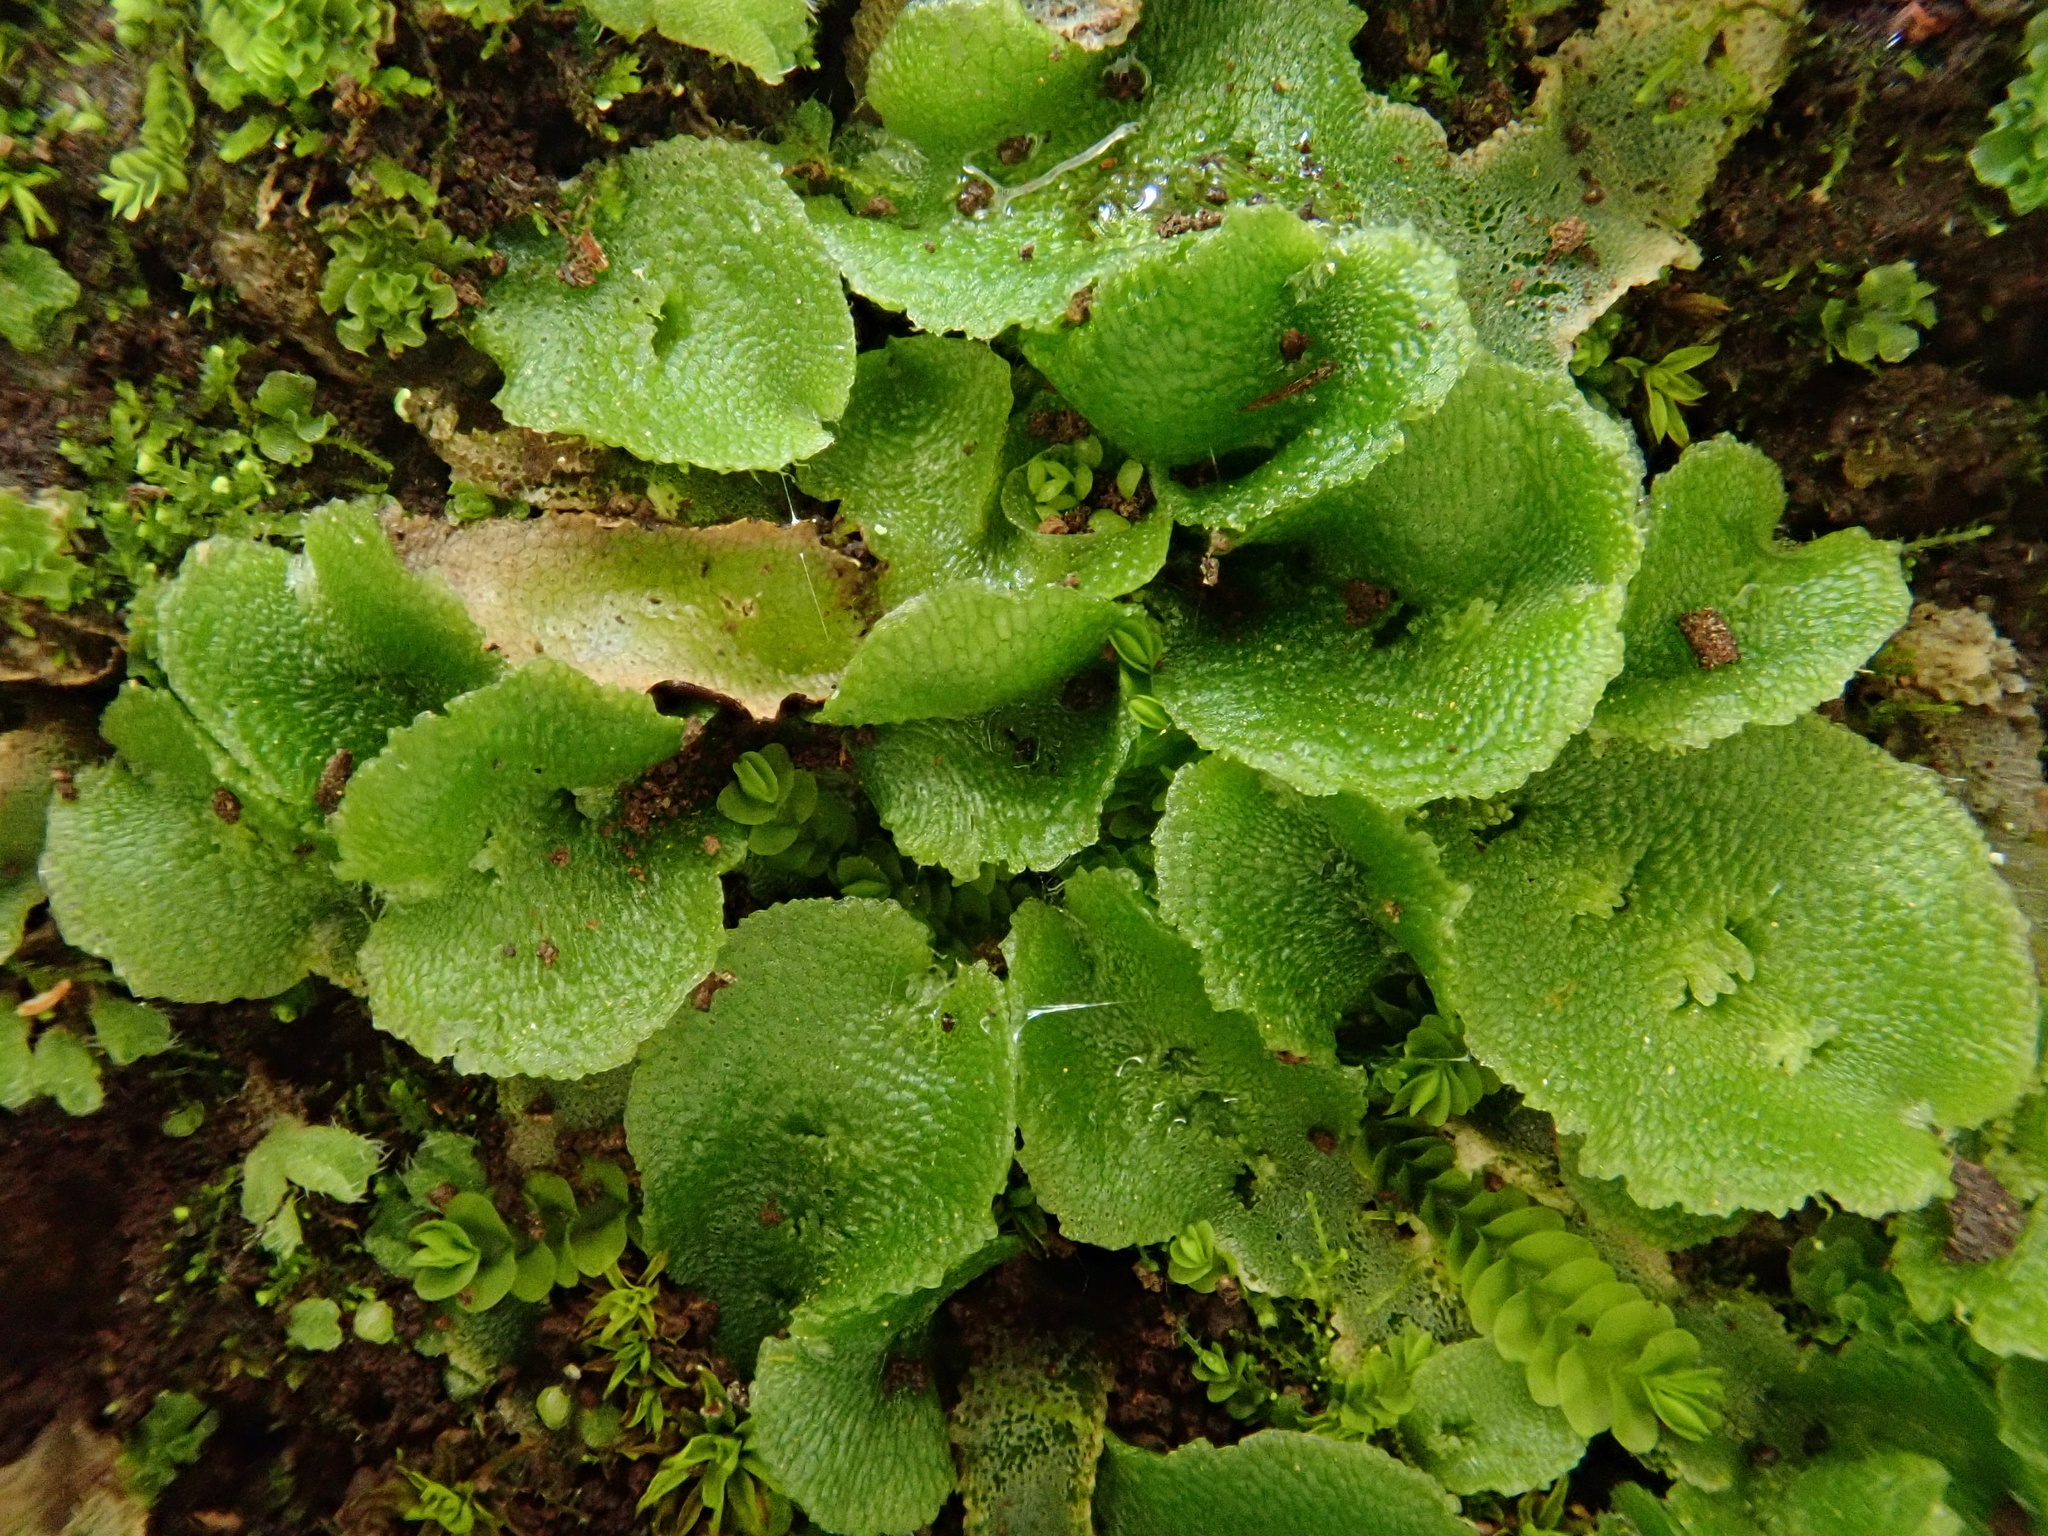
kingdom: Plantae
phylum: Marchantiophyta
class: Marchantiopsida
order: Marchantiales
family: Corsiniaceae
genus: Corsinia
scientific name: Corsinia coriandrina
